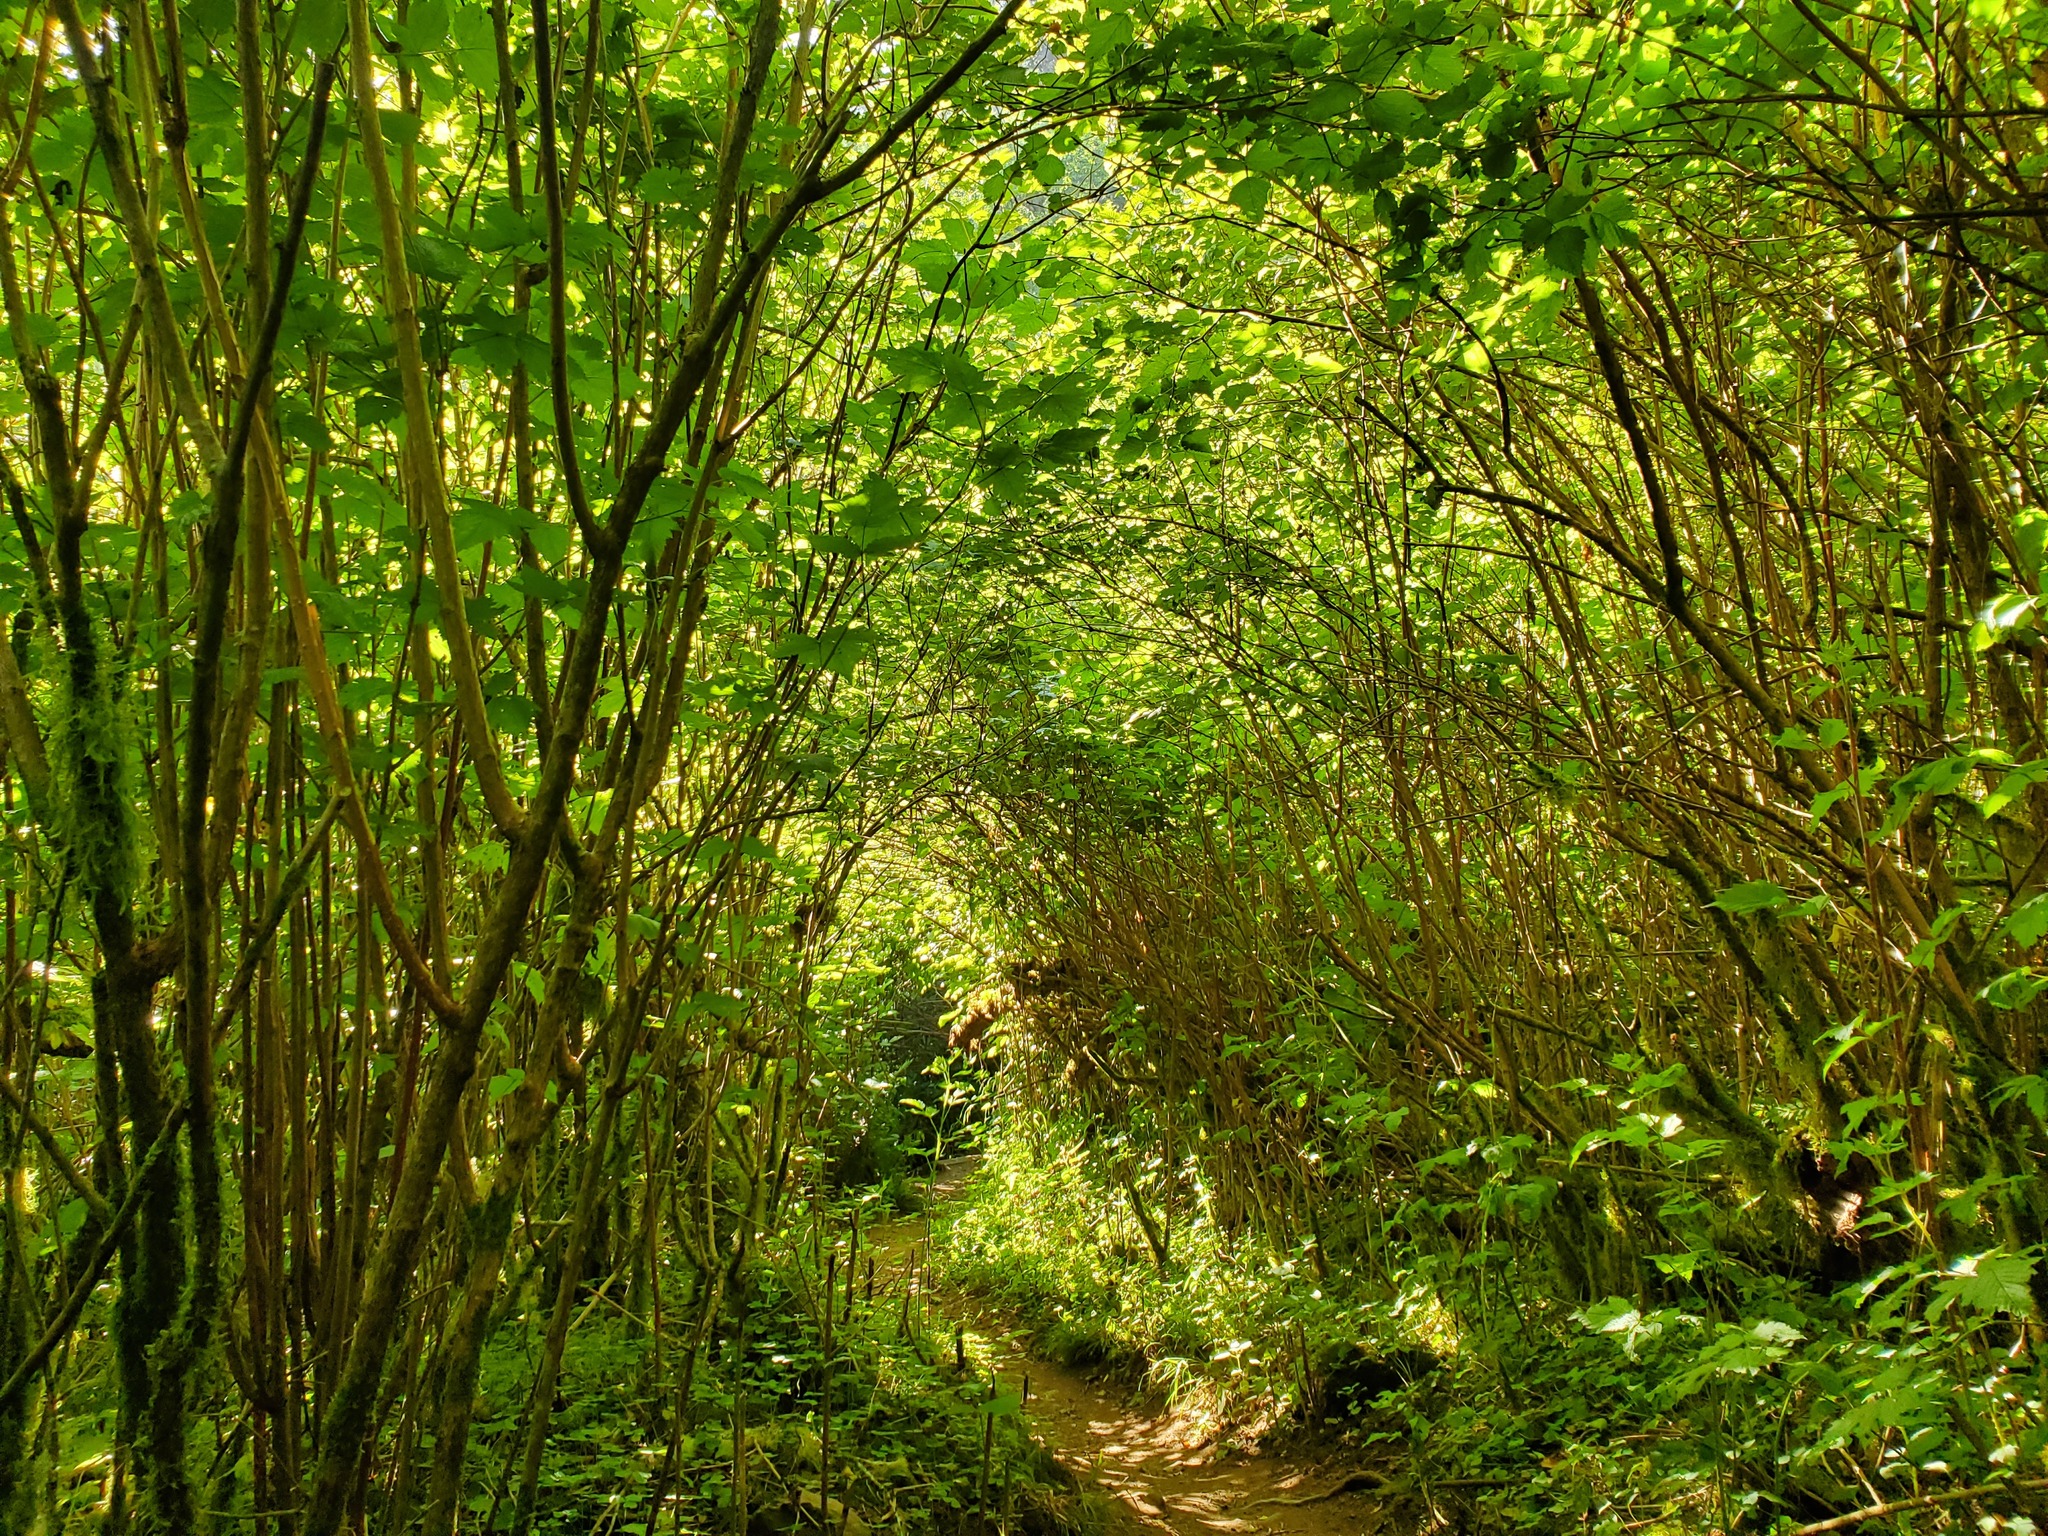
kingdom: Plantae
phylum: Tracheophyta
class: Magnoliopsida
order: Rosales
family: Rosaceae
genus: Rubus
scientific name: Rubus spectabilis
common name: Salmonberry
